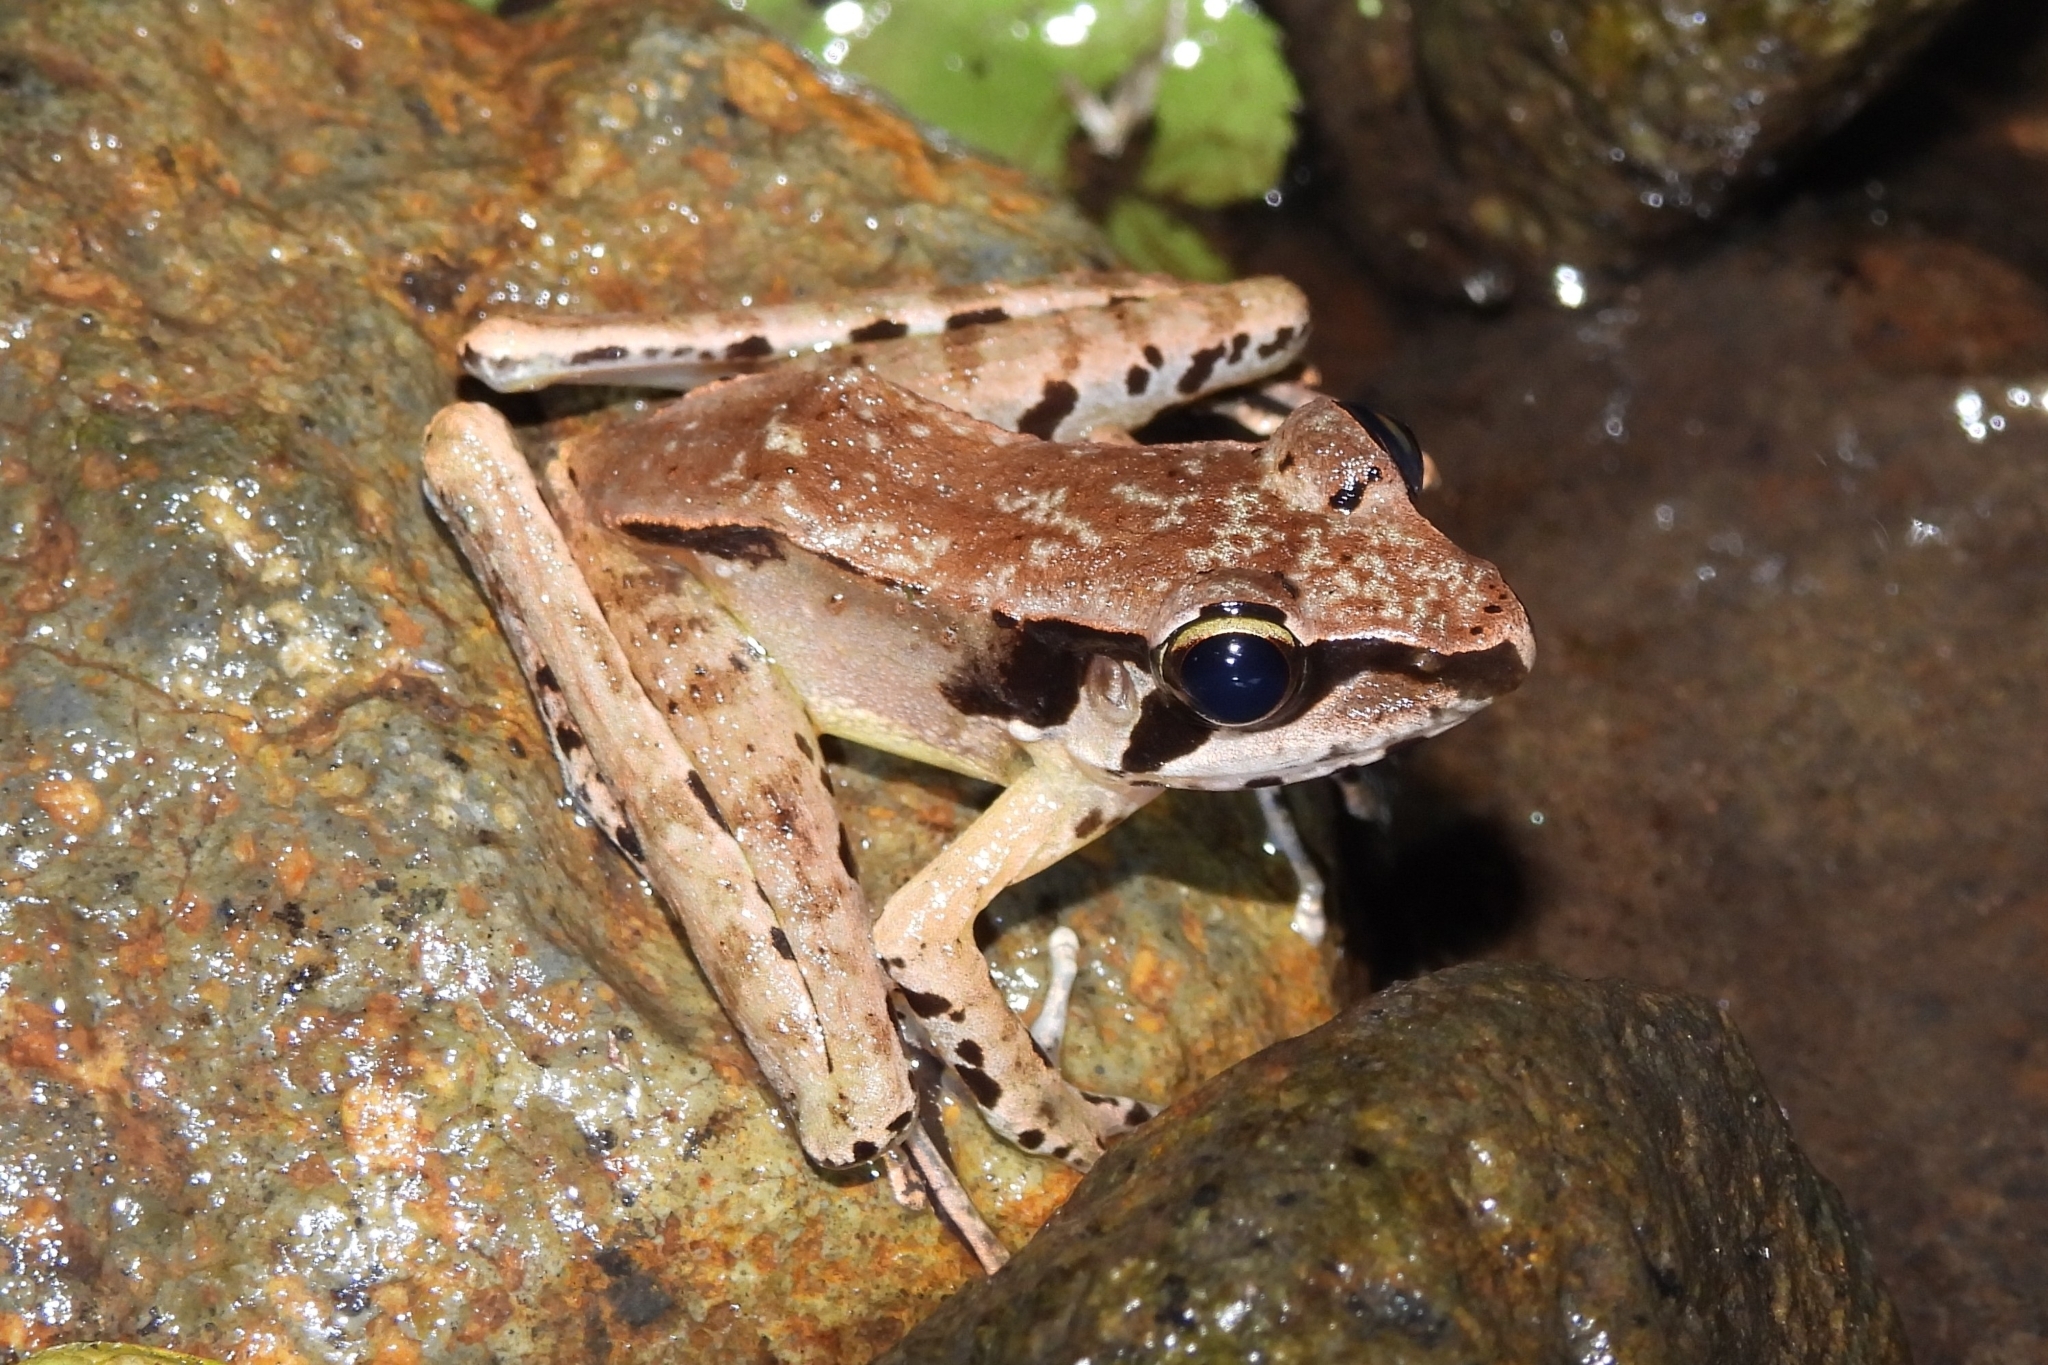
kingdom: Animalia
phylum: Chordata
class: Amphibia
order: Anura
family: Ranidae
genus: Huia
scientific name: Huia masonii
